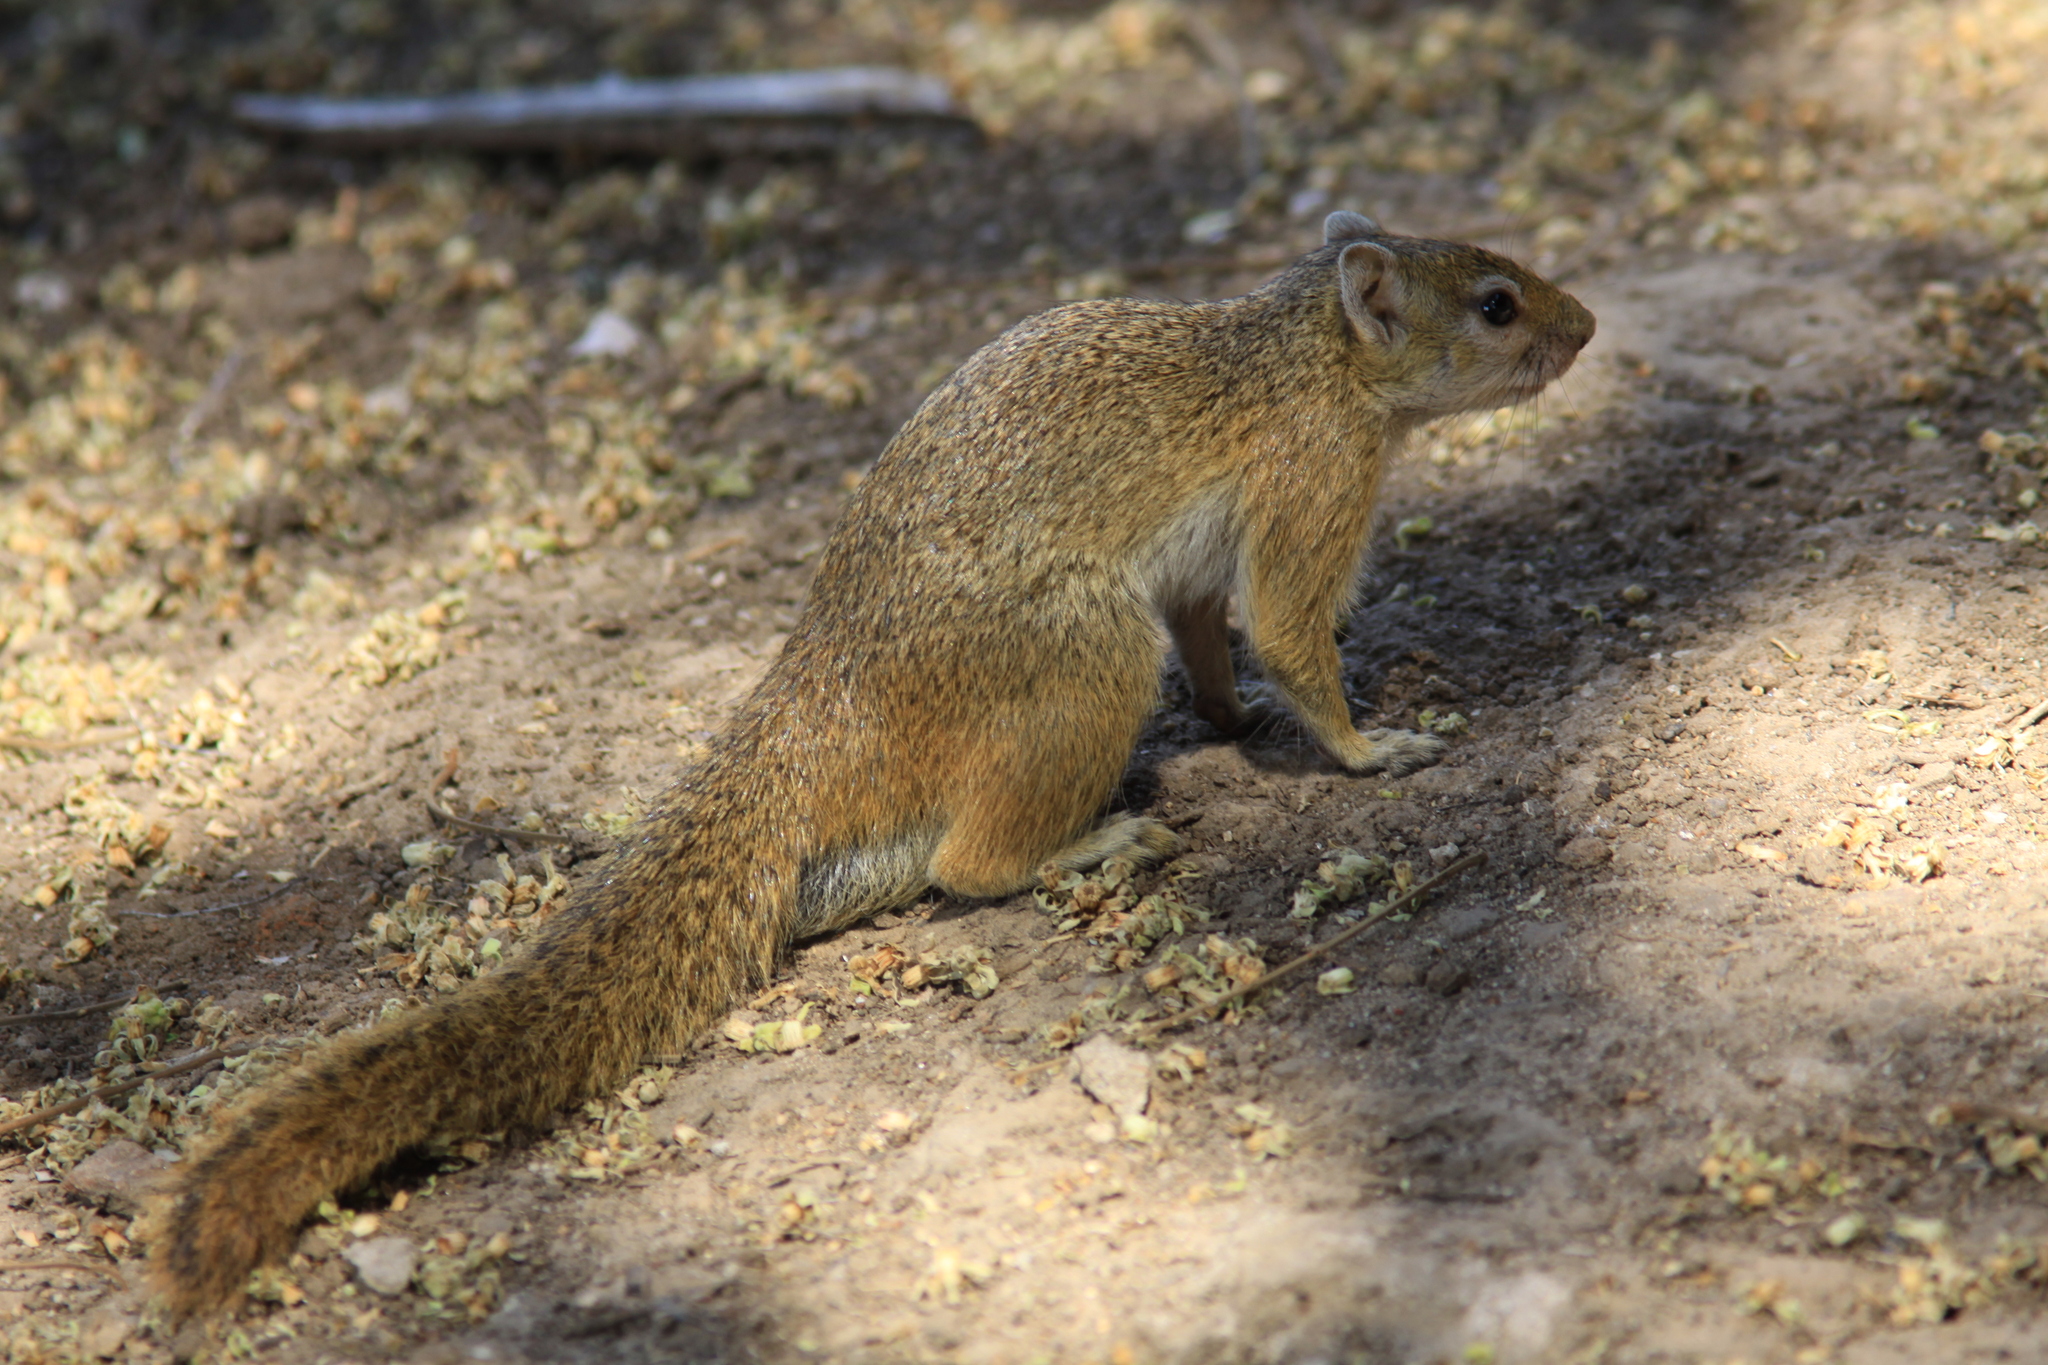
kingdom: Animalia
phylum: Chordata
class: Mammalia
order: Rodentia
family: Sciuridae
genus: Paraxerus
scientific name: Paraxerus cepapi
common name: Smith's bush squirrel
